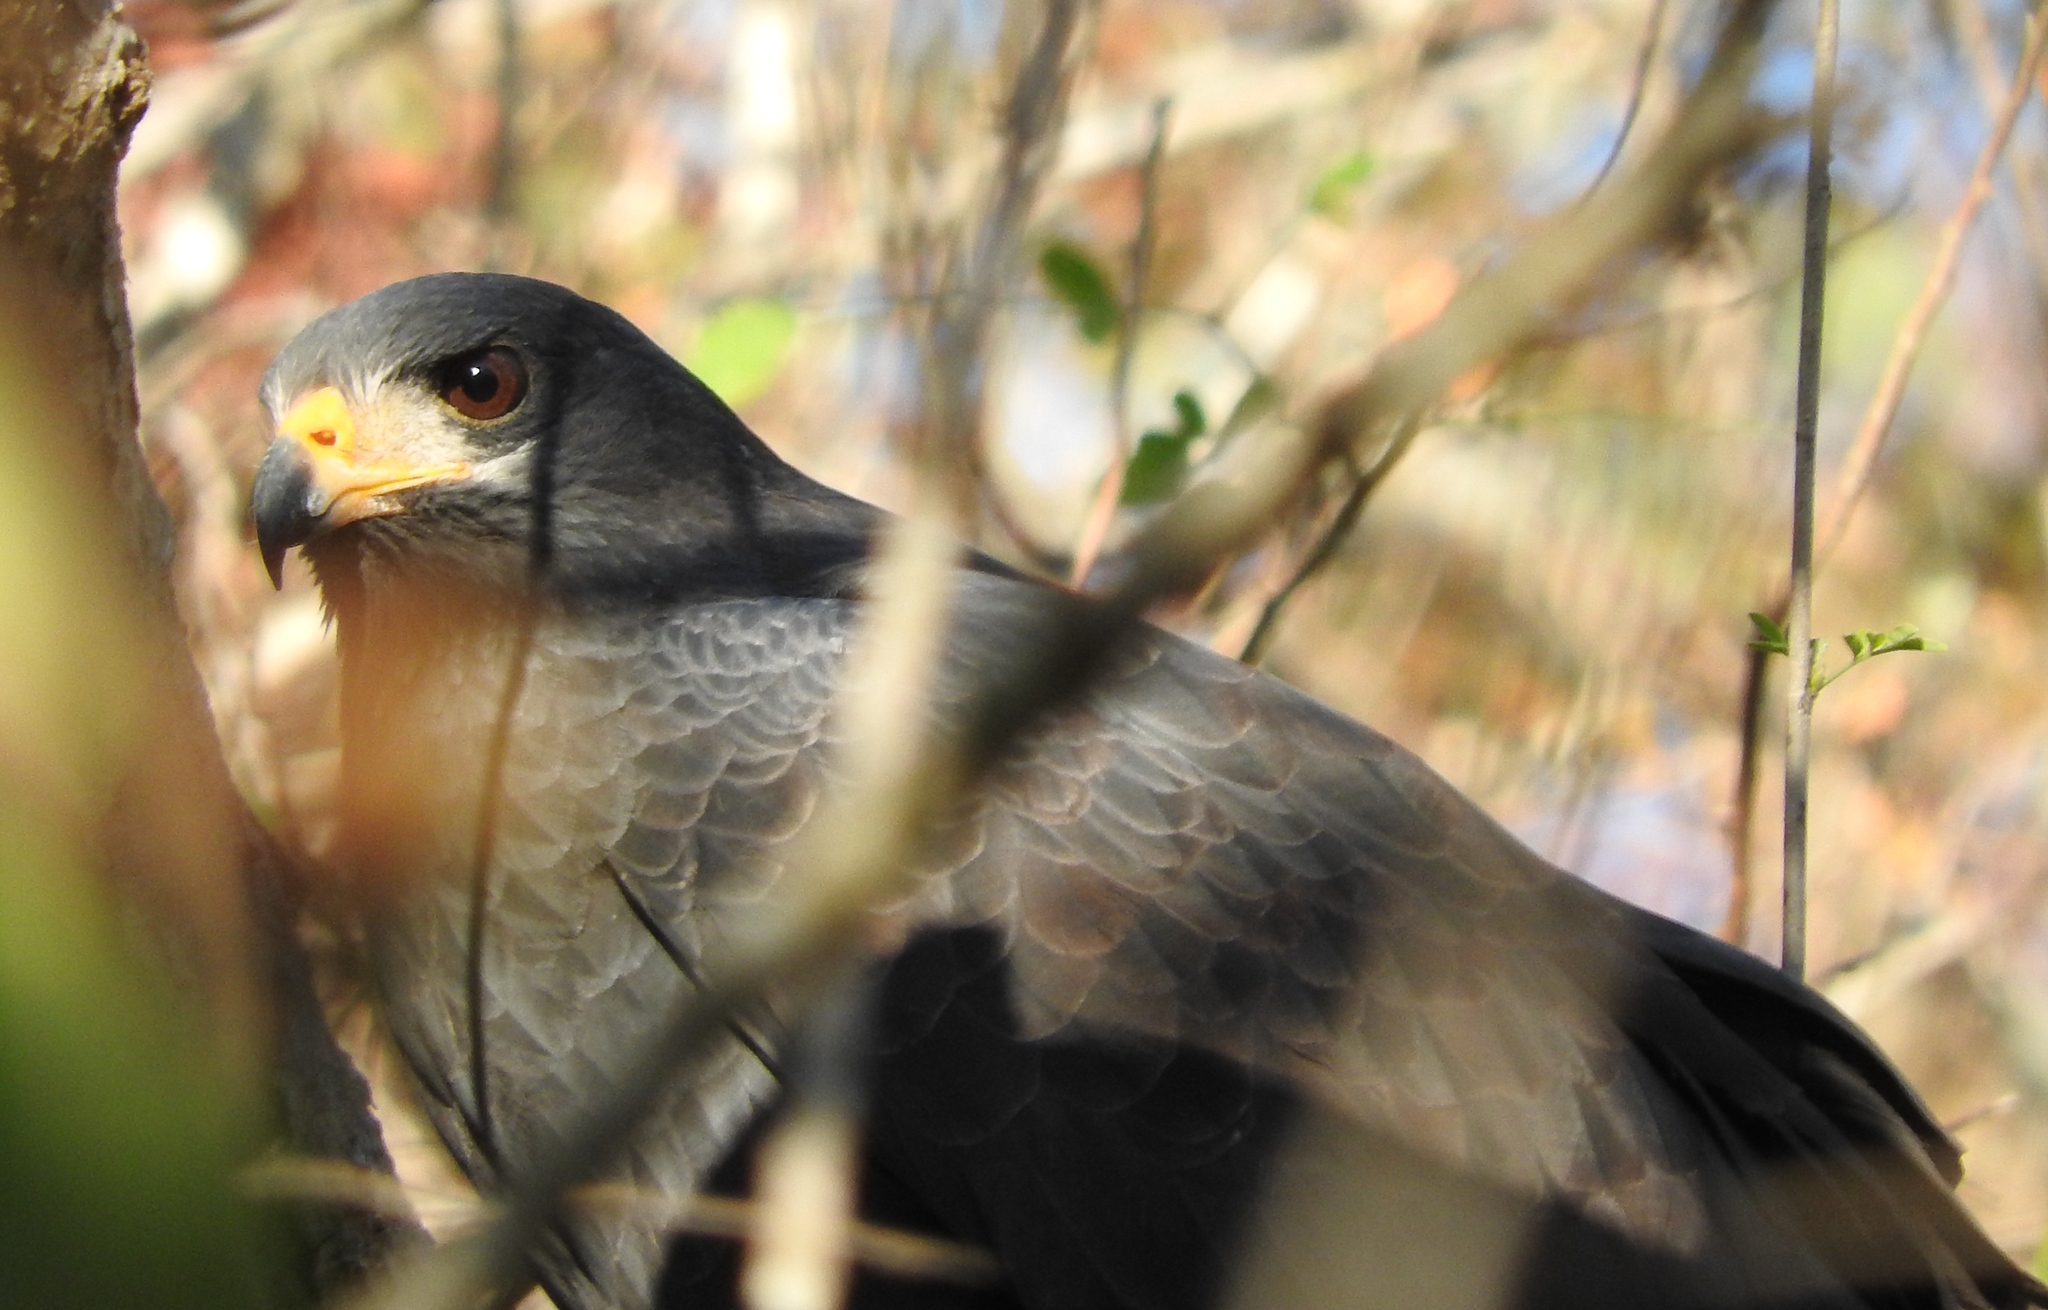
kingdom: Animalia
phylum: Chordata
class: Aves
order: Accipitriformes
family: Accipitridae
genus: Buteogallus
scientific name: Buteogallus anthracinus
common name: Common black hawk
